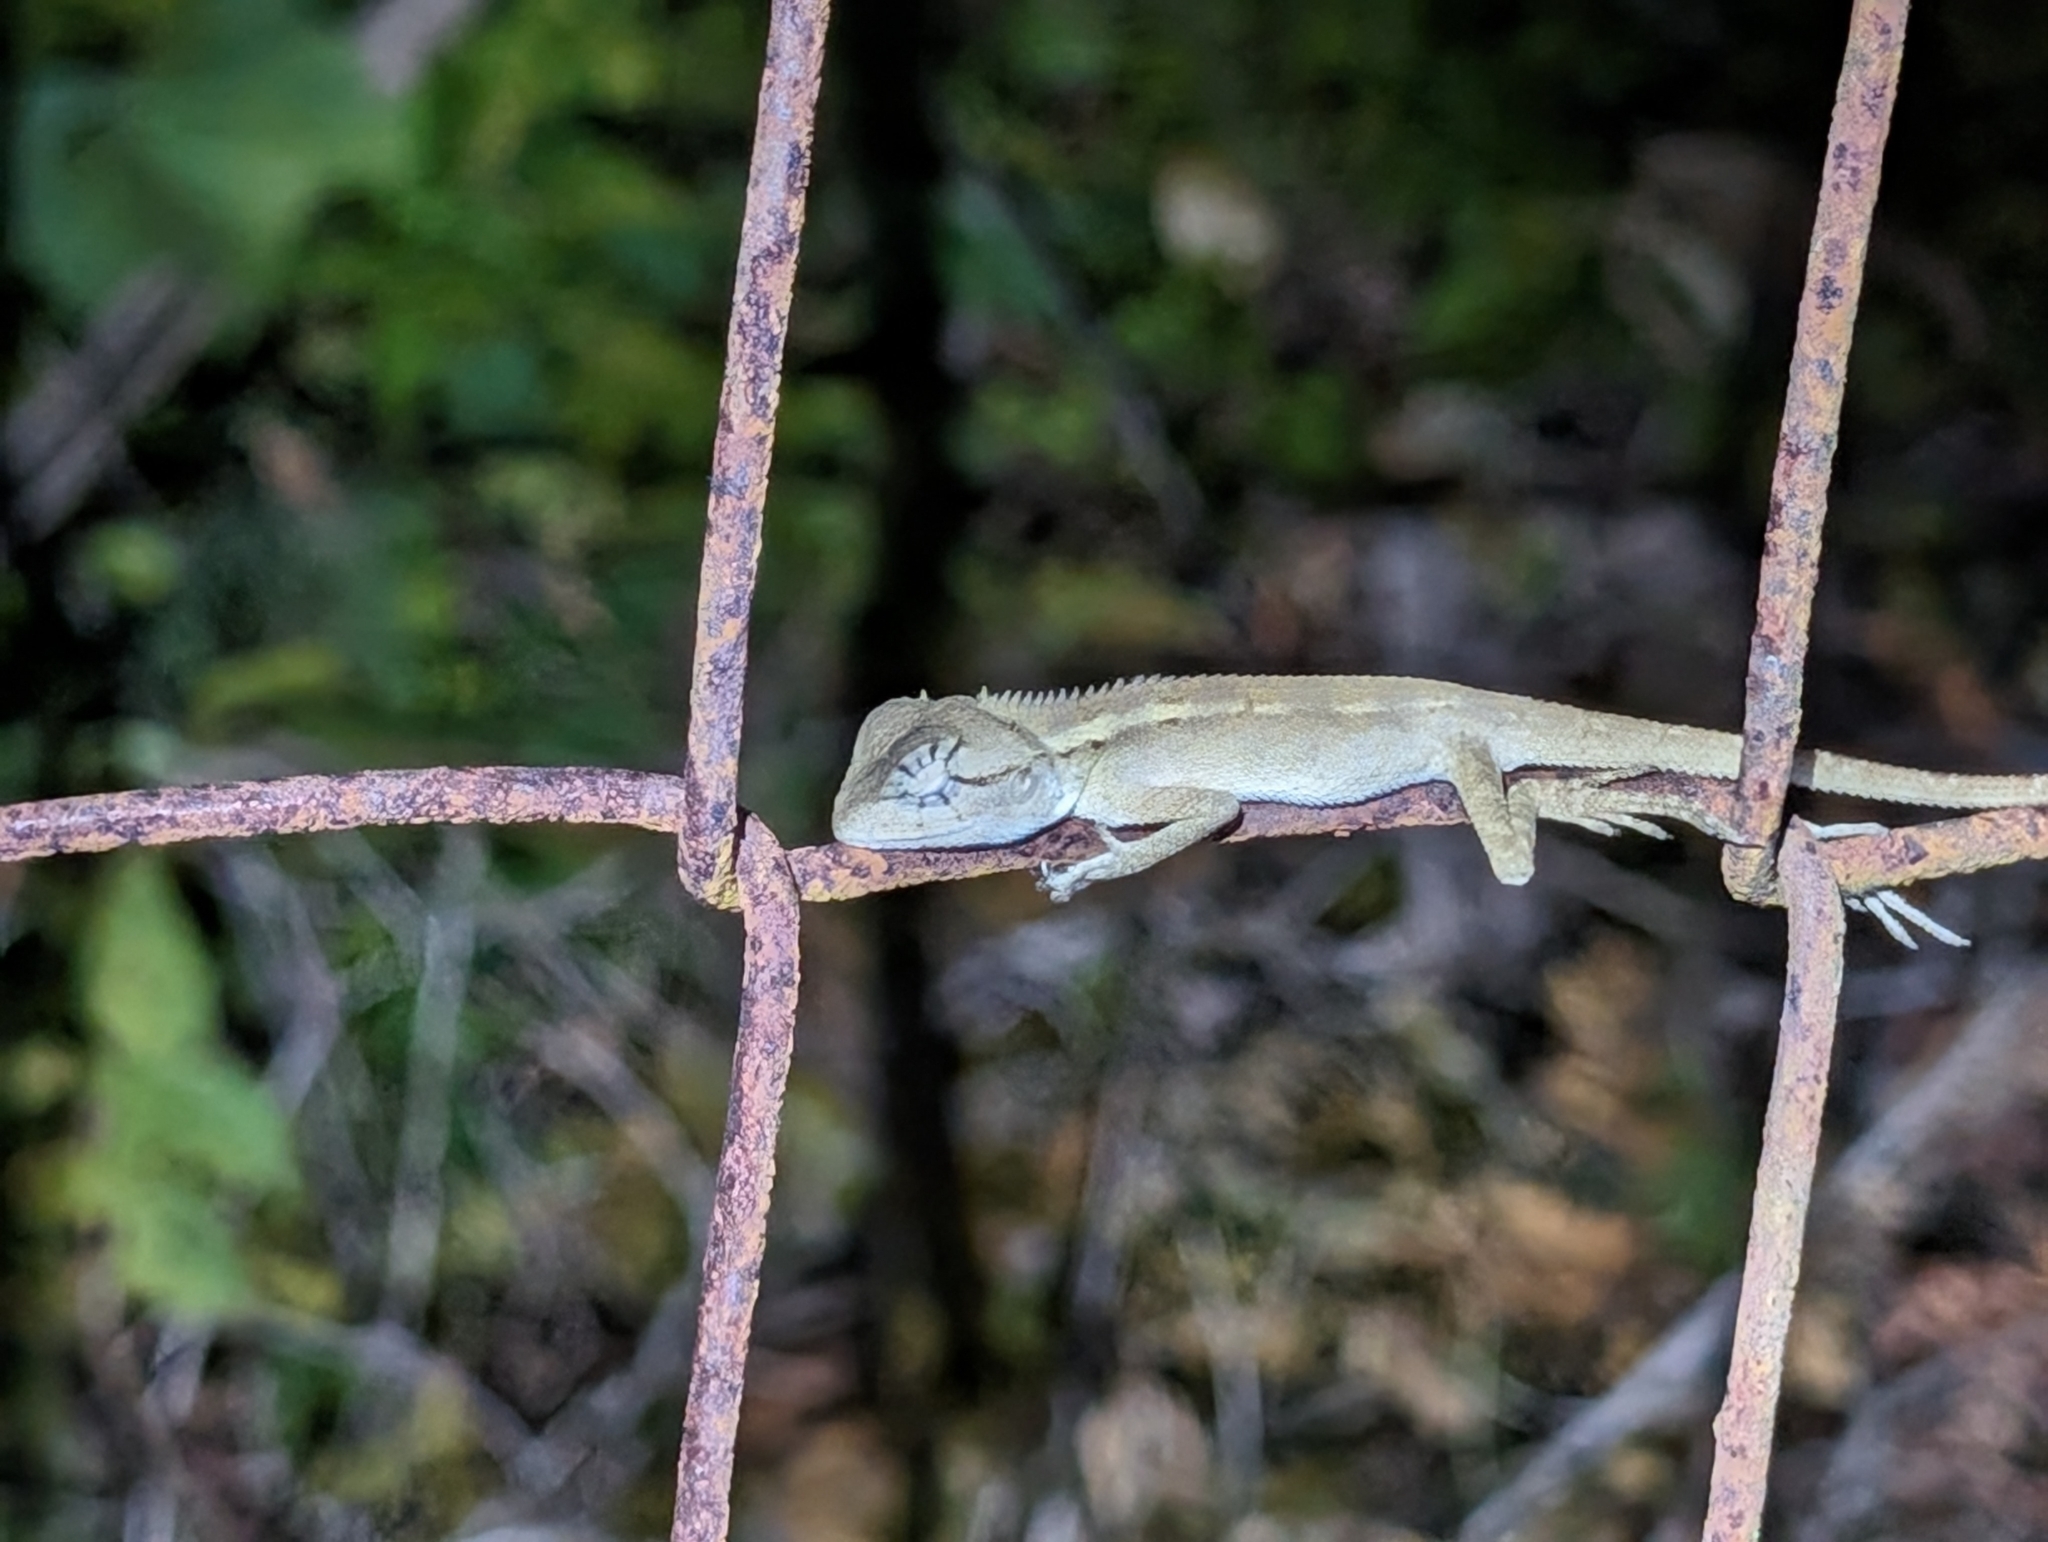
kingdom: Animalia
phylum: Chordata
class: Squamata
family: Agamidae
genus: Calotes
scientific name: Calotes emma
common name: Thailand bloodsucker
